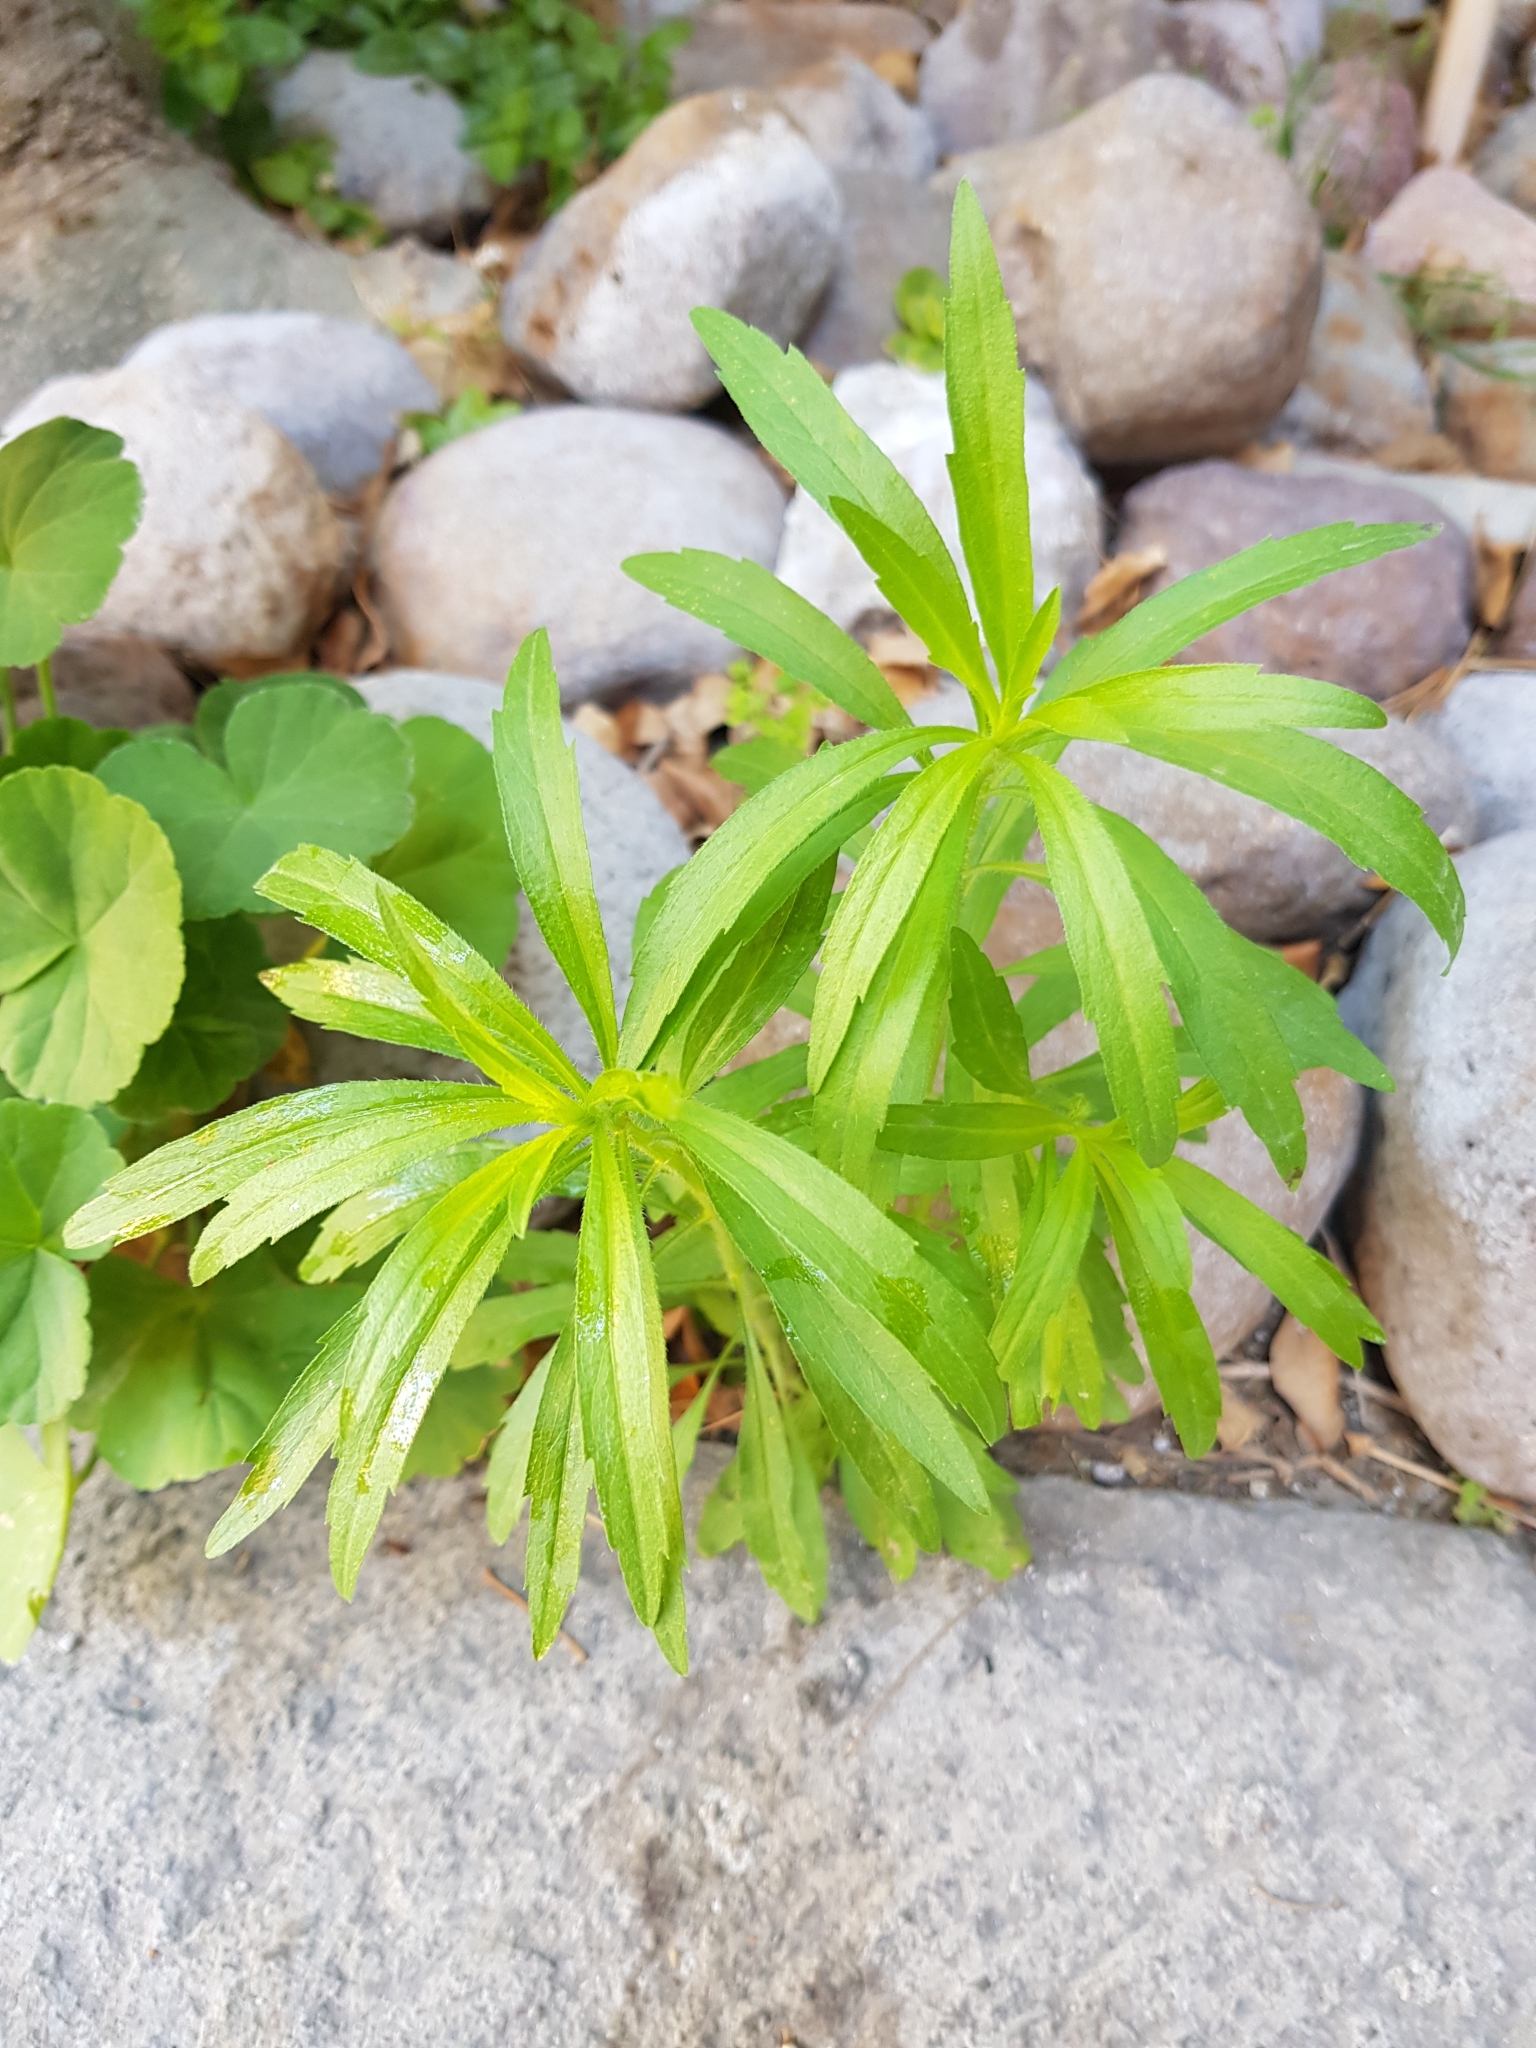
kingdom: Plantae
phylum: Tracheophyta
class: Magnoliopsida
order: Asterales
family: Asteraceae
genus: Erigeron
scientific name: Erigeron canadensis
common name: Canadian fleabane
